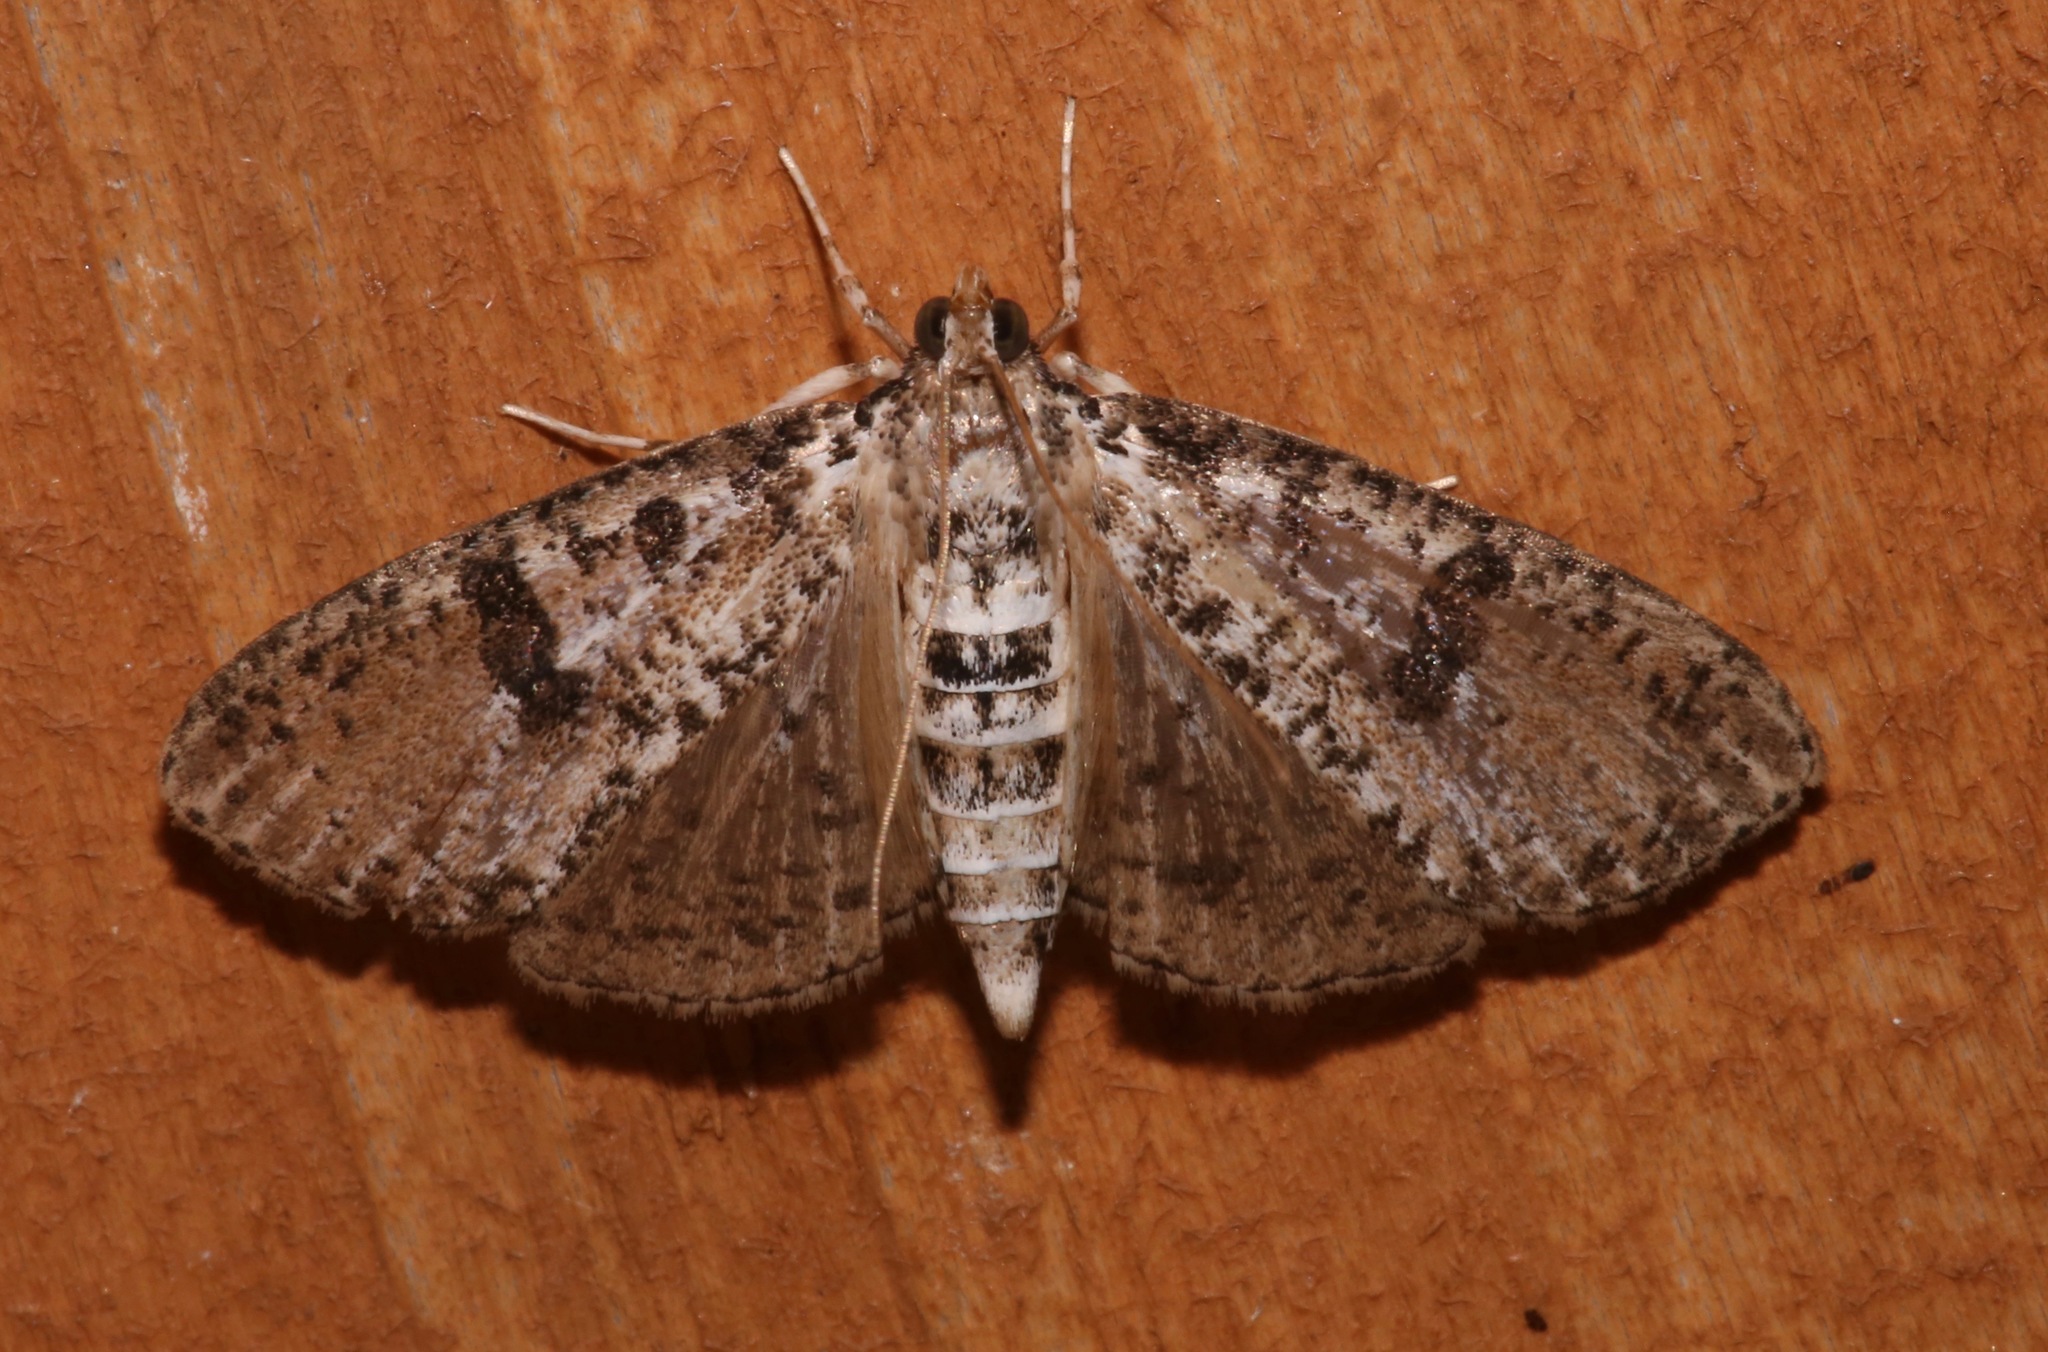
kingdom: Animalia
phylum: Arthropoda
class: Insecta
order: Lepidoptera
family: Crambidae
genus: Palpita
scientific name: Palpita magniferalis
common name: Splendid palpita moth
